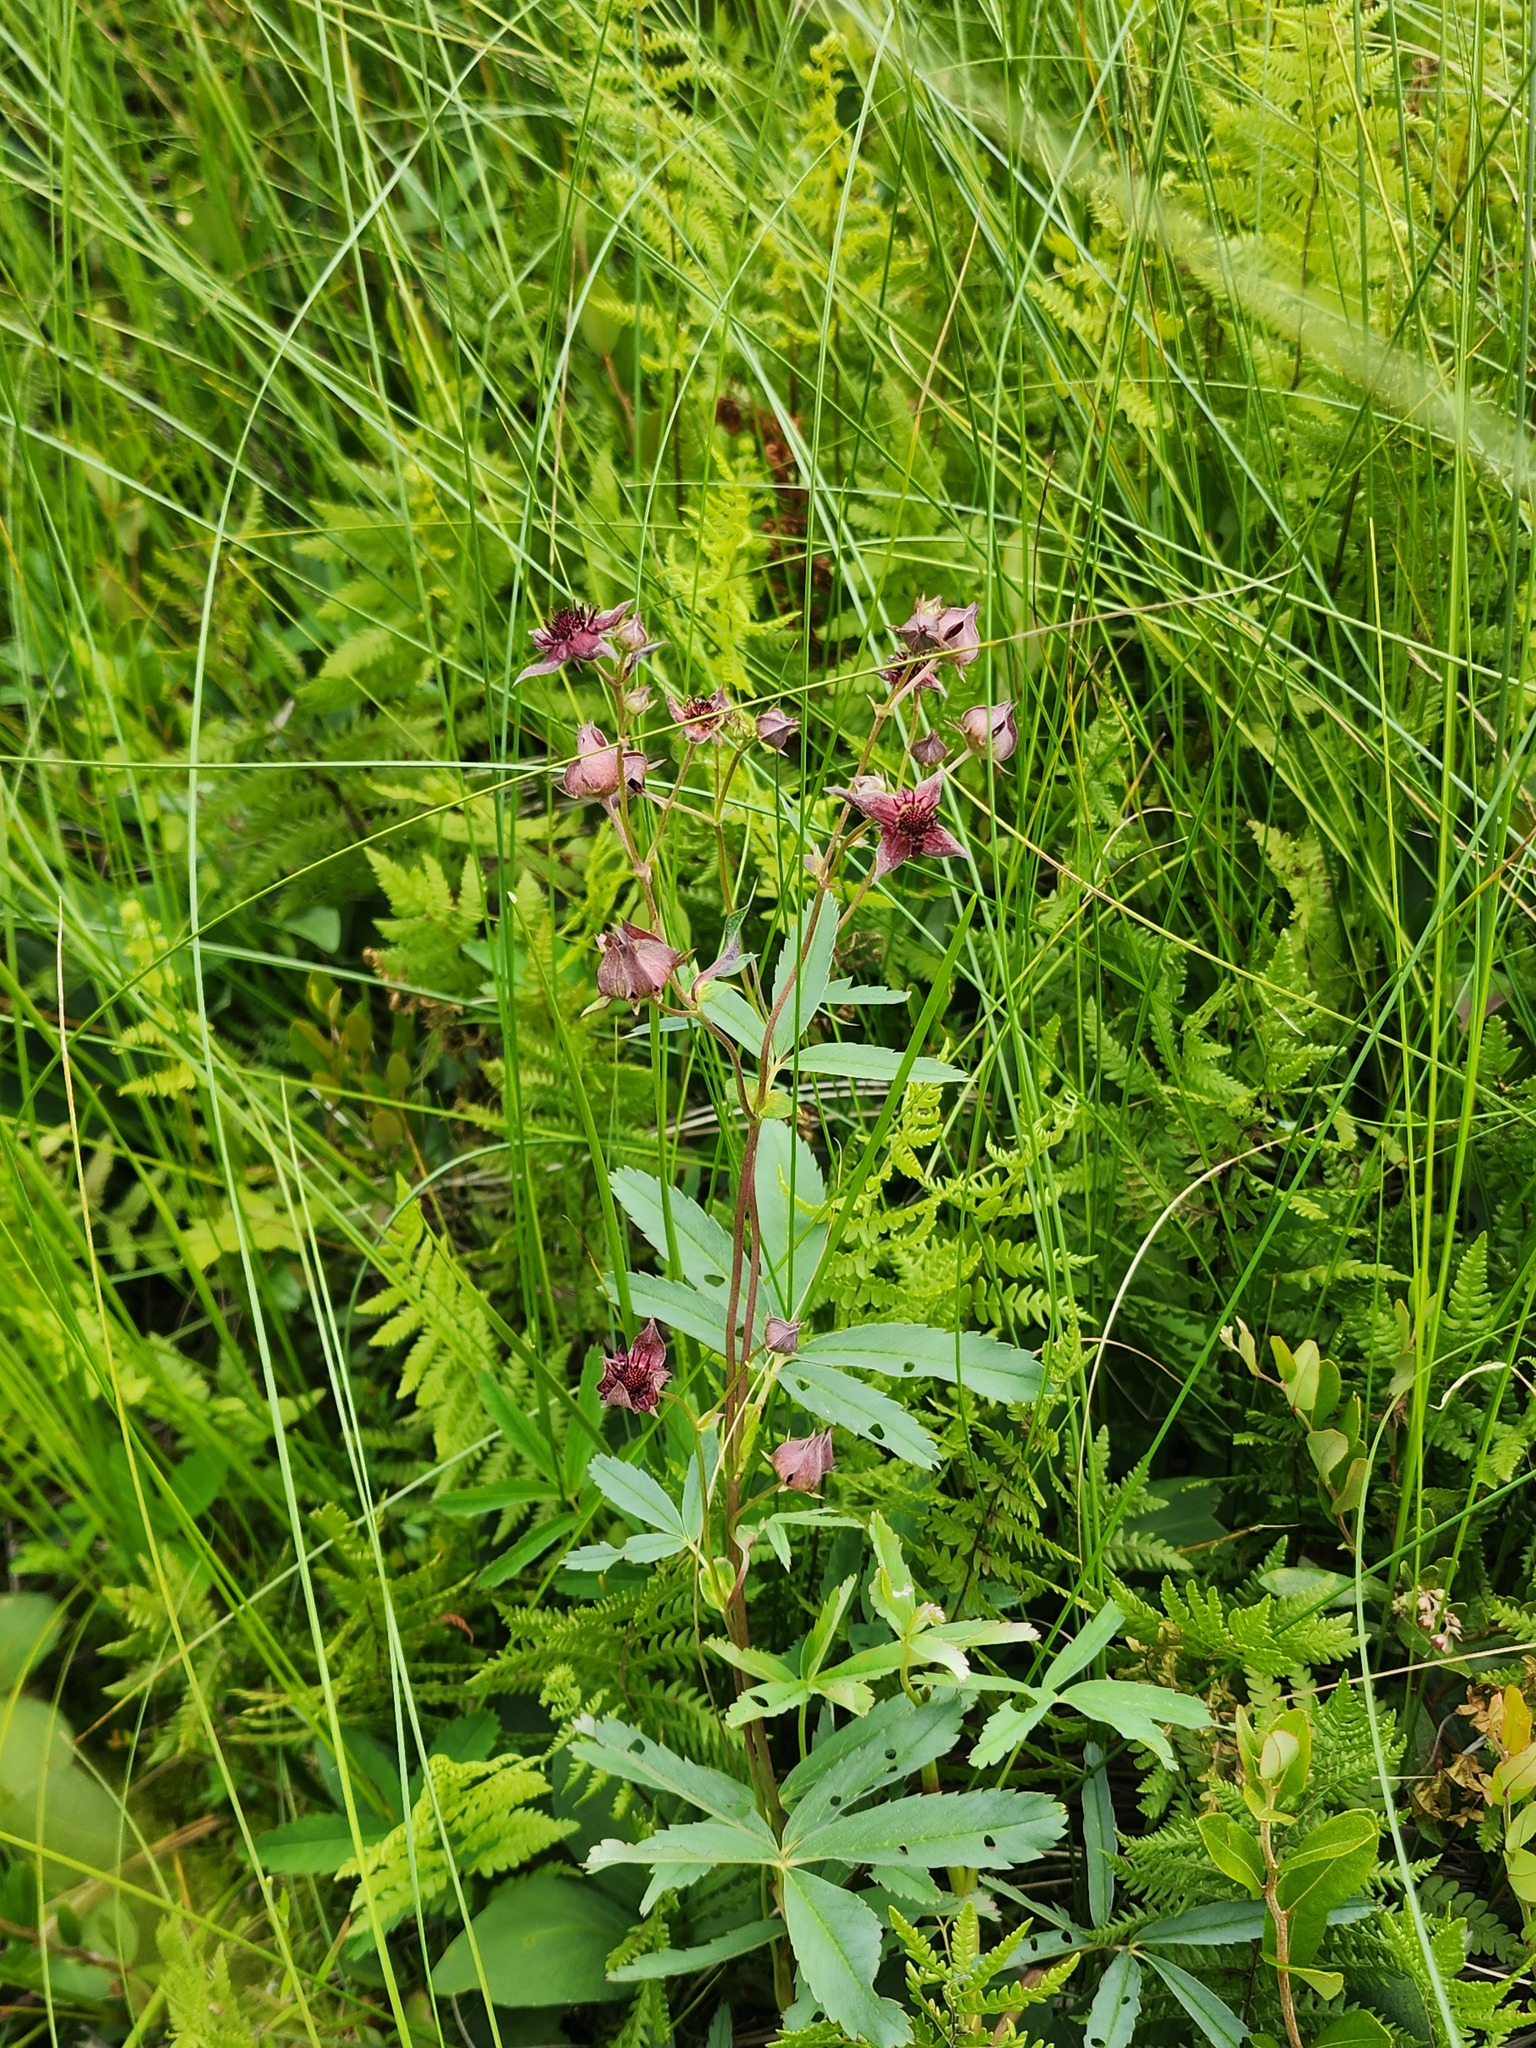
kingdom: Plantae
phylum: Tracheophyta
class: Magnoliopsida
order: Rosales
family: Rosaceae
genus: Comarum
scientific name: Comarum palustre
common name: Marsh cinquefoil
